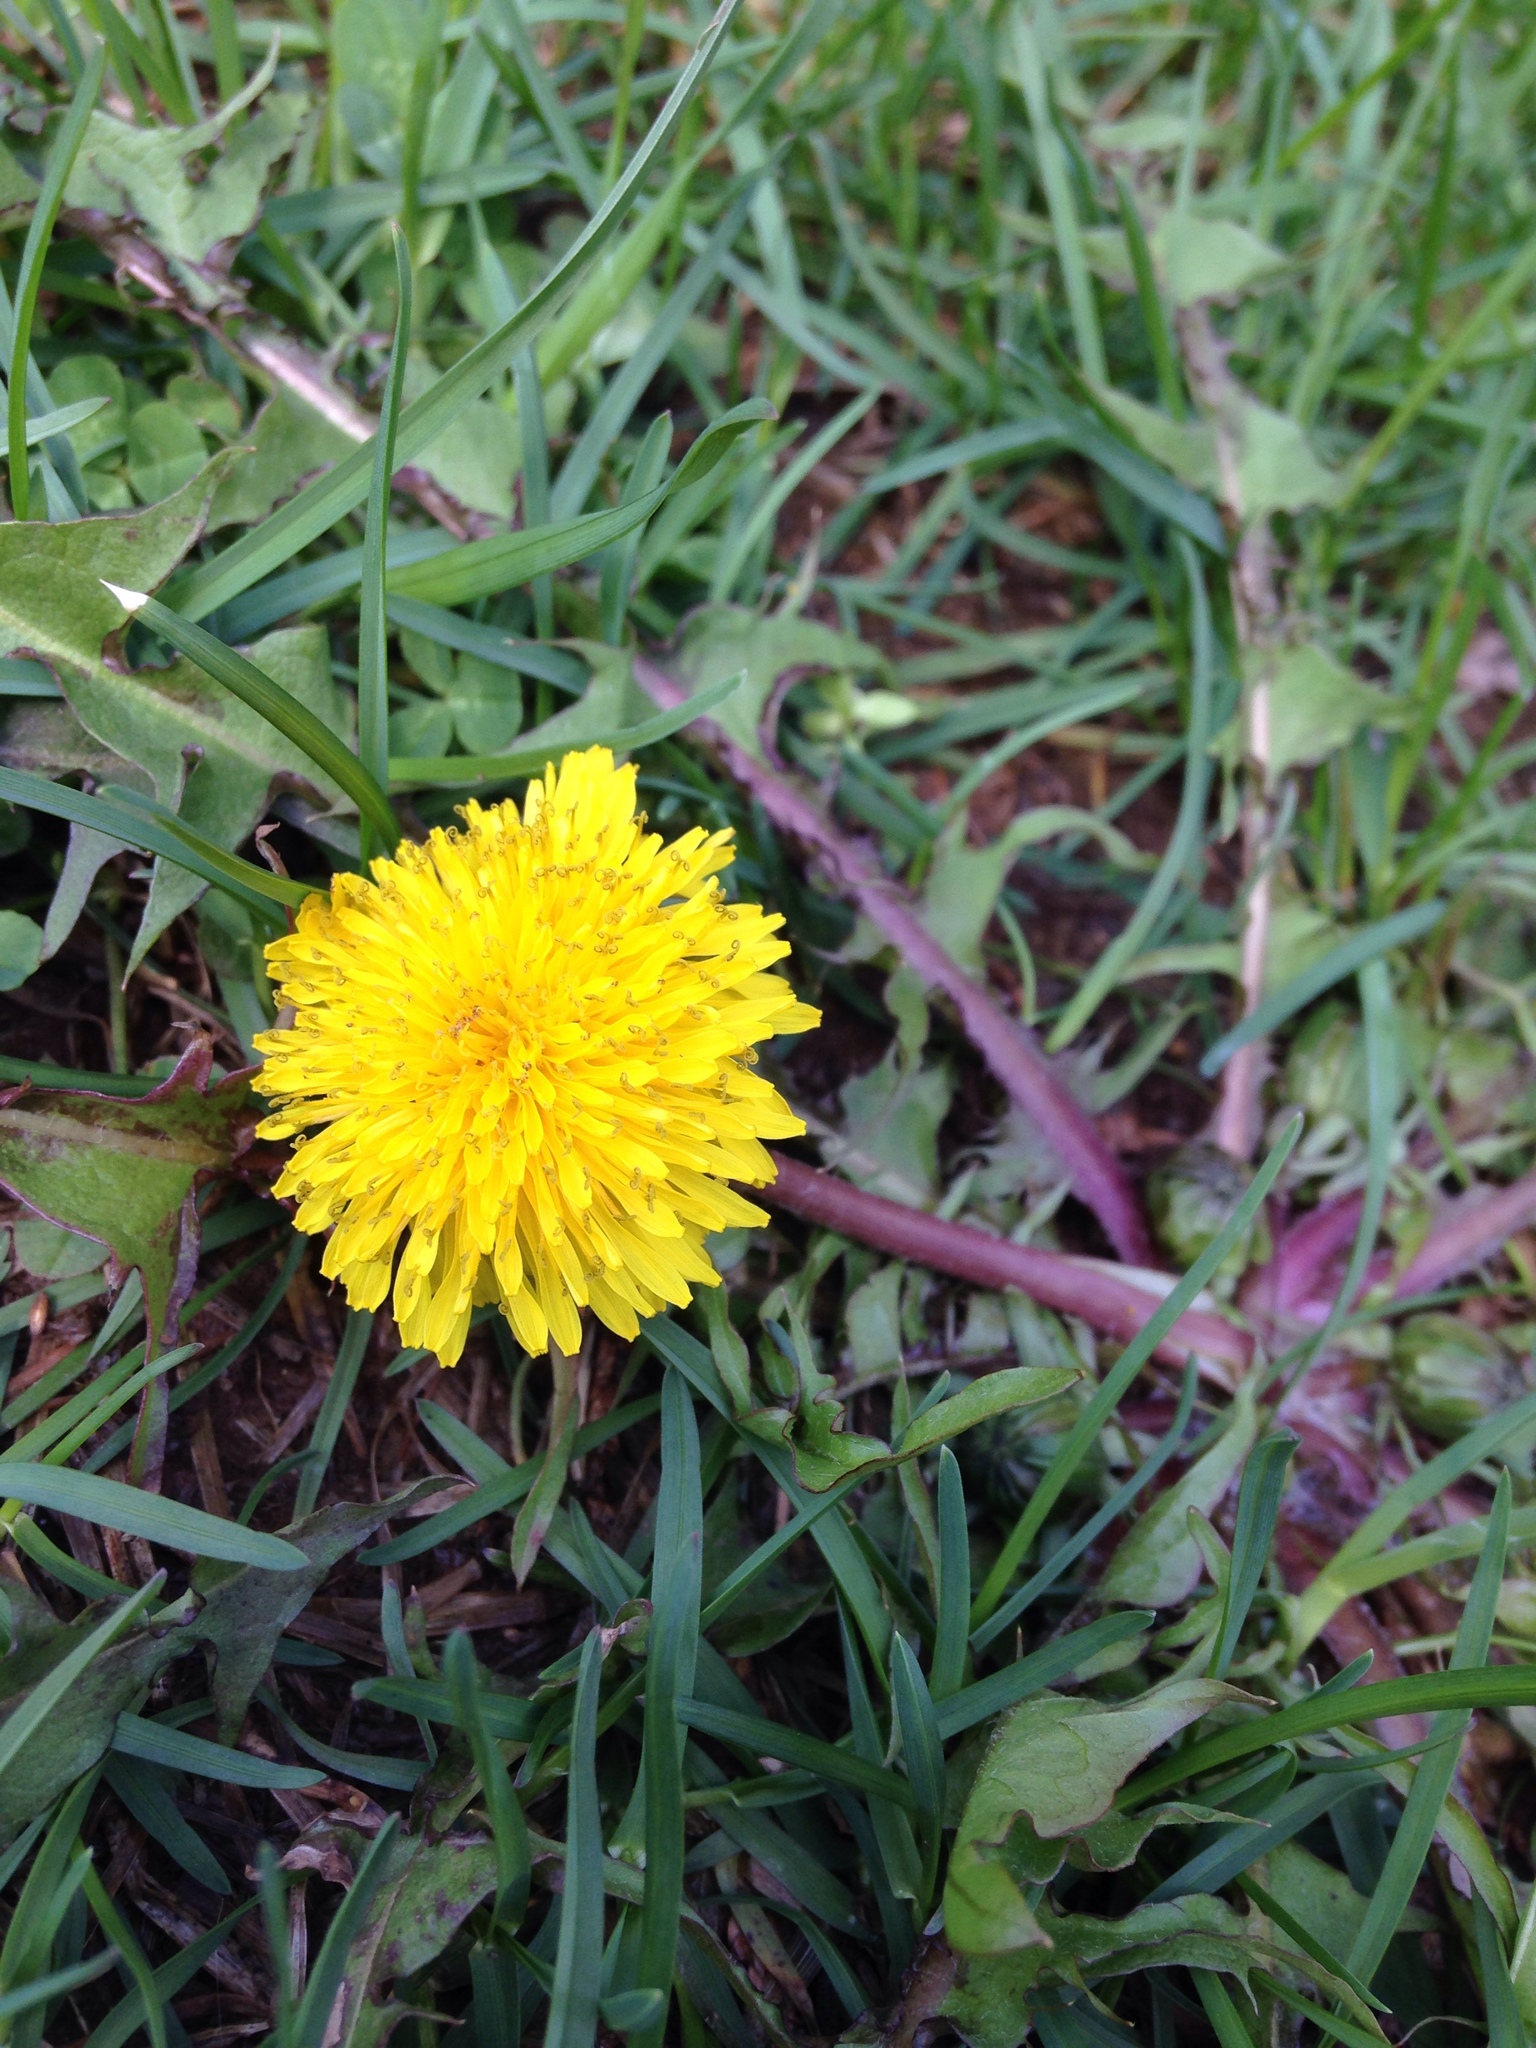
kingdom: Plantae
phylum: Tracheophyta
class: Magnoliopsida
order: Asterales
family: Asteraceae
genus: Taraxacum
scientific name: Taraxacum officinale
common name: Common dandelion
